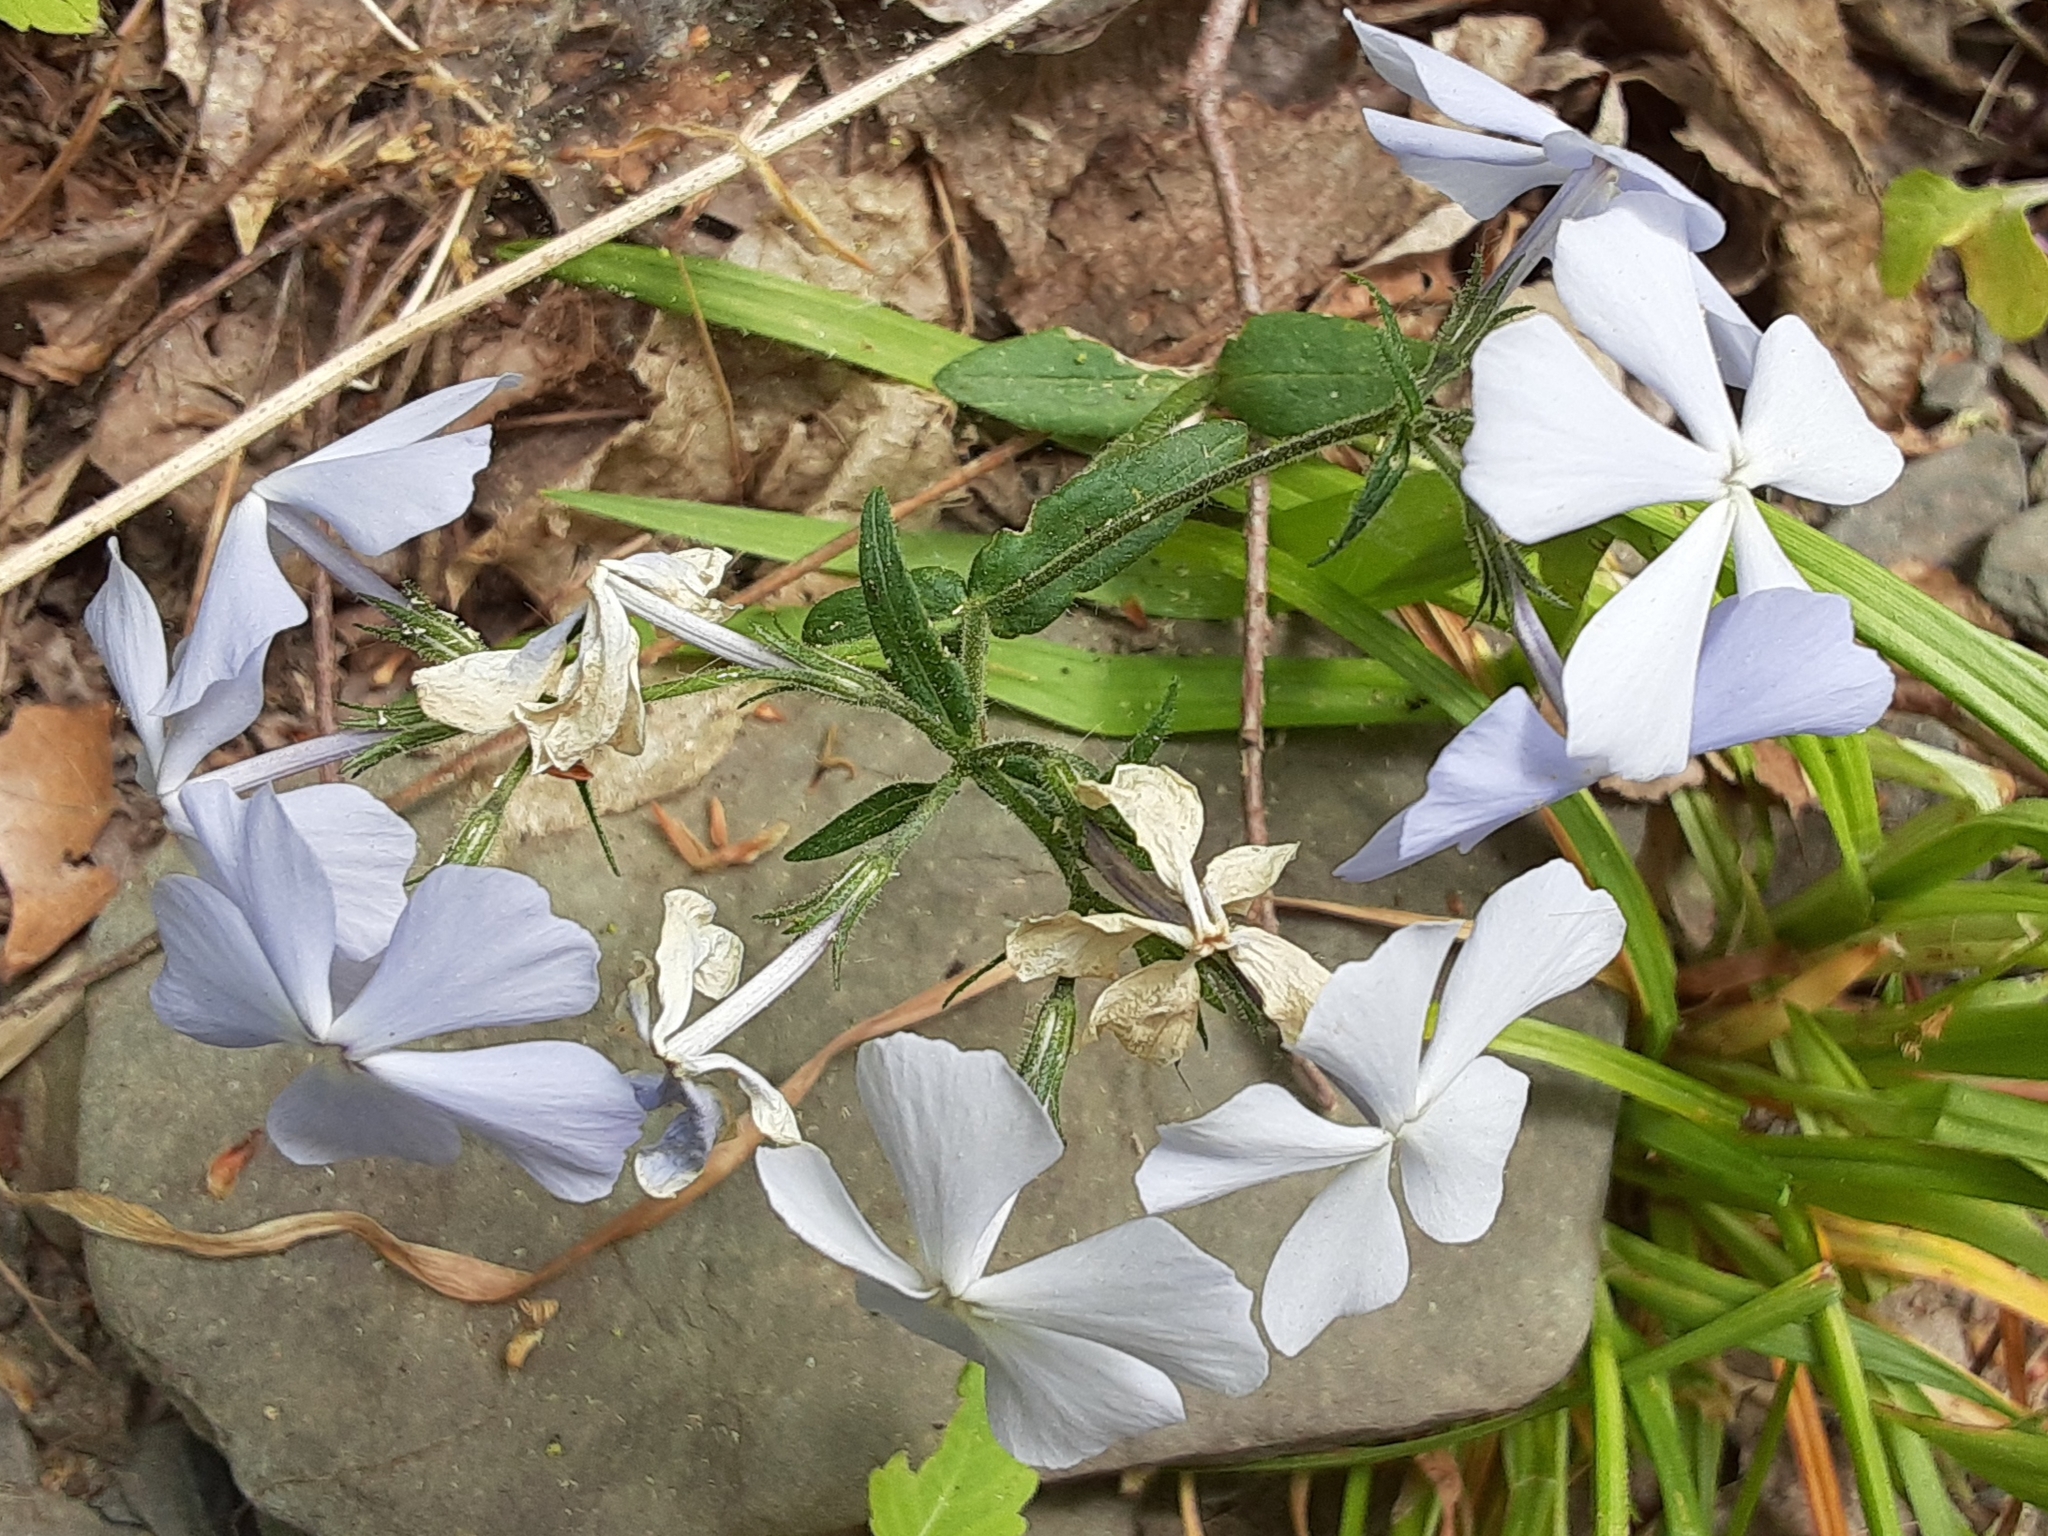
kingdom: Plantae
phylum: Tracheophyta
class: Magnoliopsida
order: Ericales
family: Polemoniaceae
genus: Phlox
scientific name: Phlox divaricata
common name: Blue phlox
